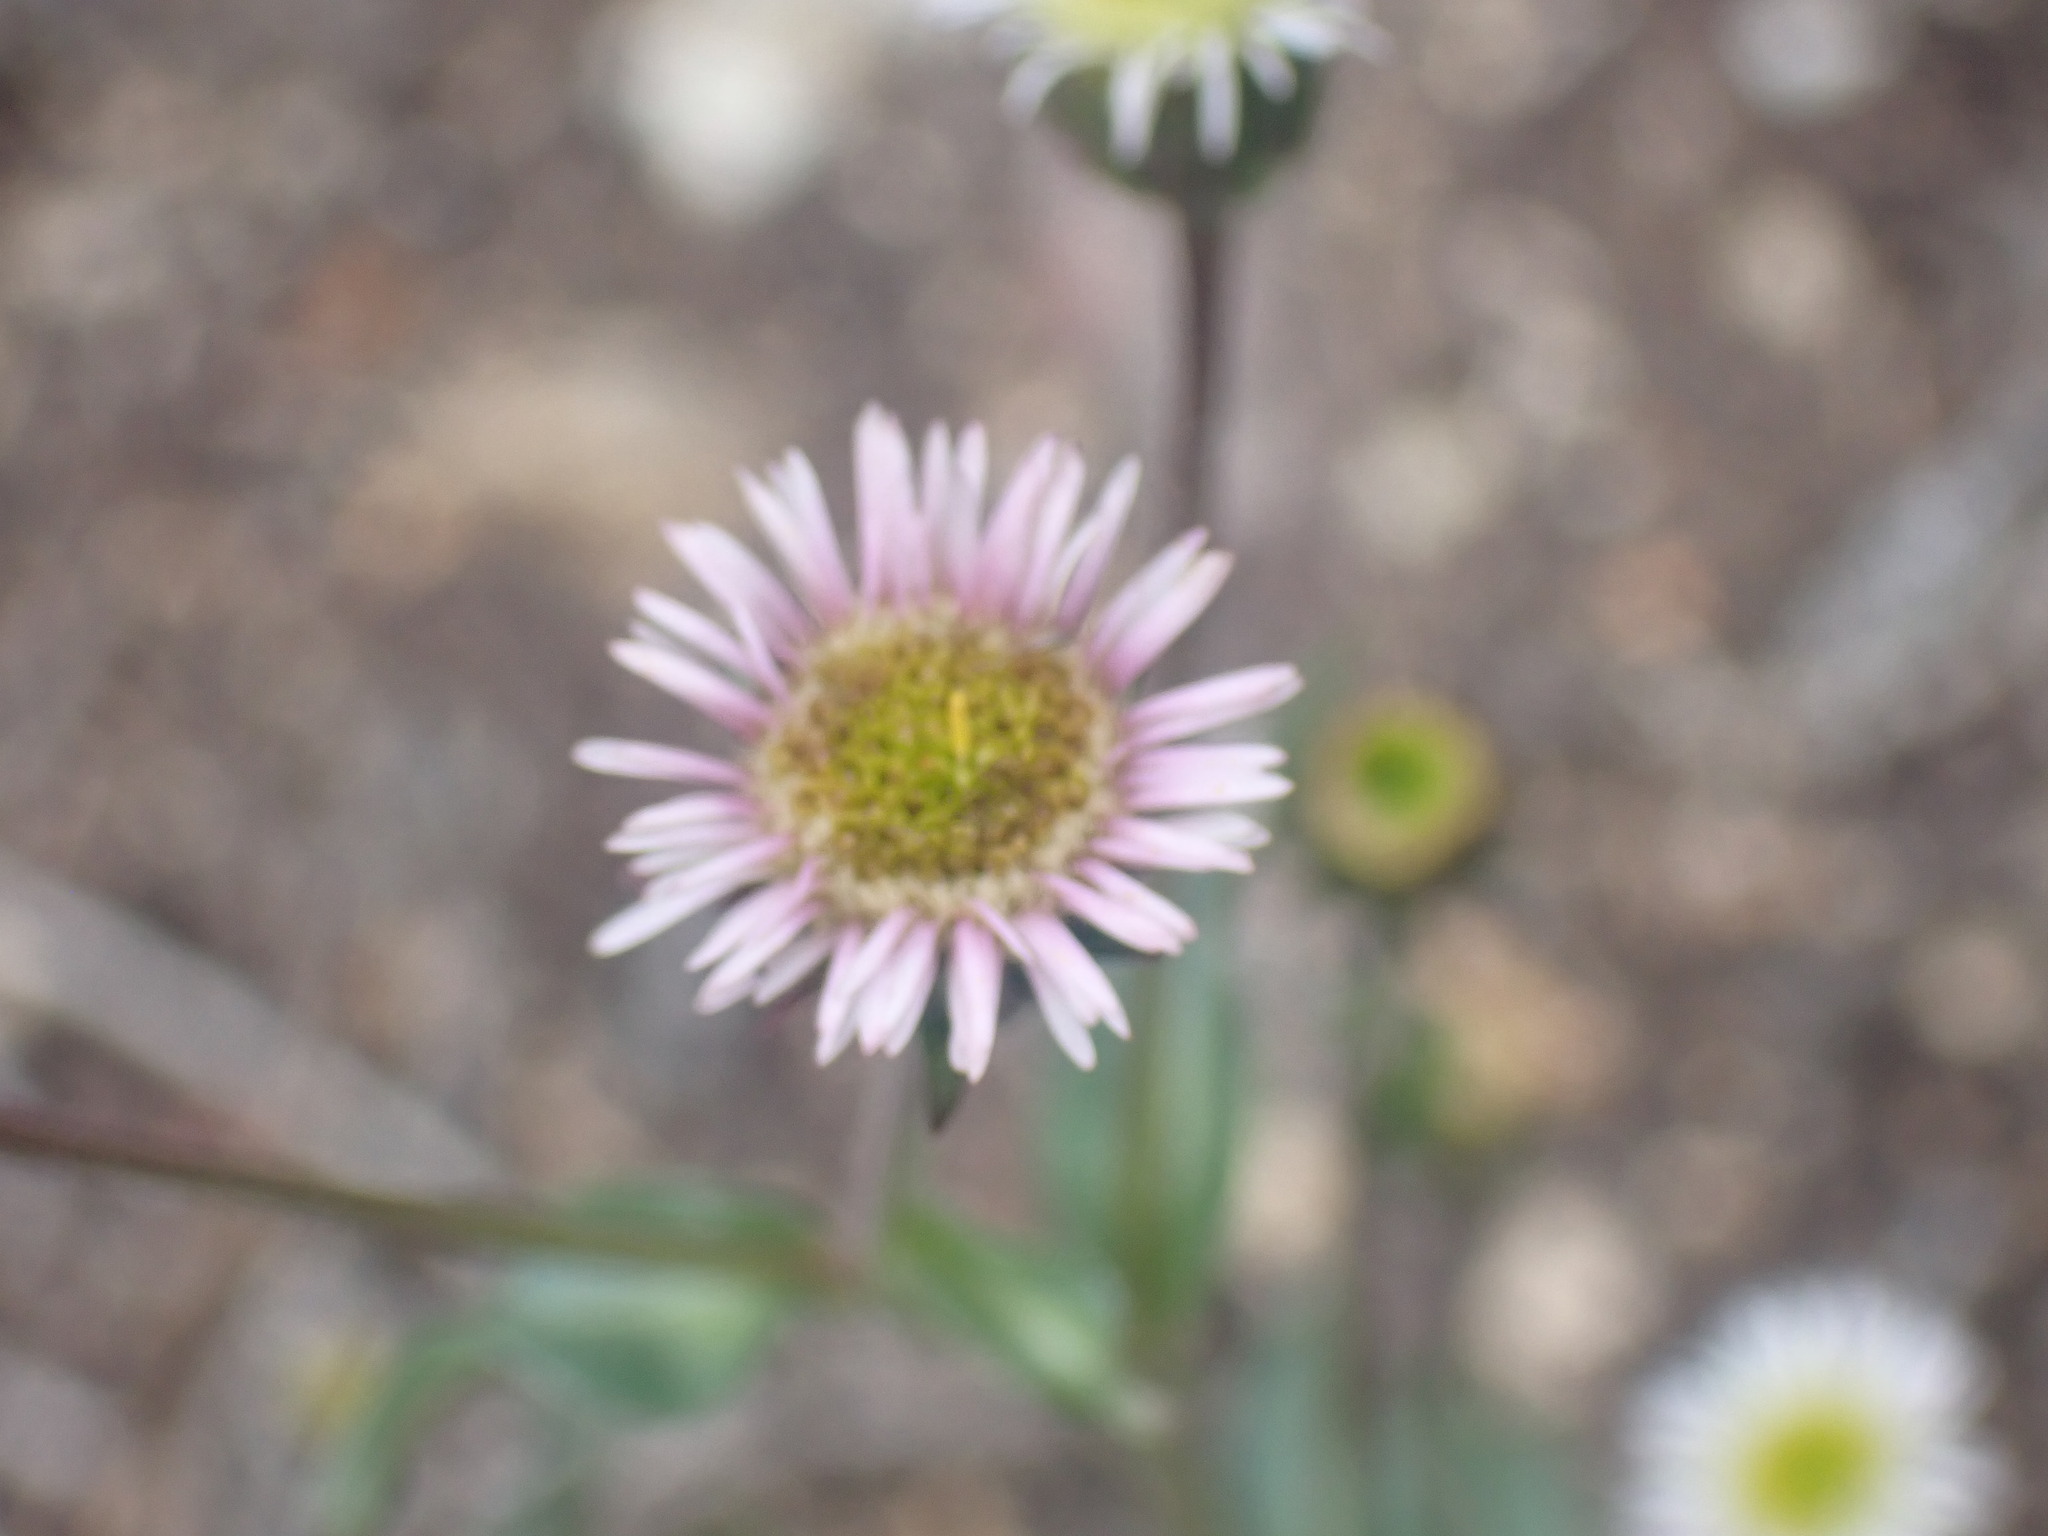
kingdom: Plantae
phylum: Tracheophyta
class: Magnoliopsida
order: Asterales
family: Asteraceae
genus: Erigeron
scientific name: Erigeron acris
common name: Blue fleabane
